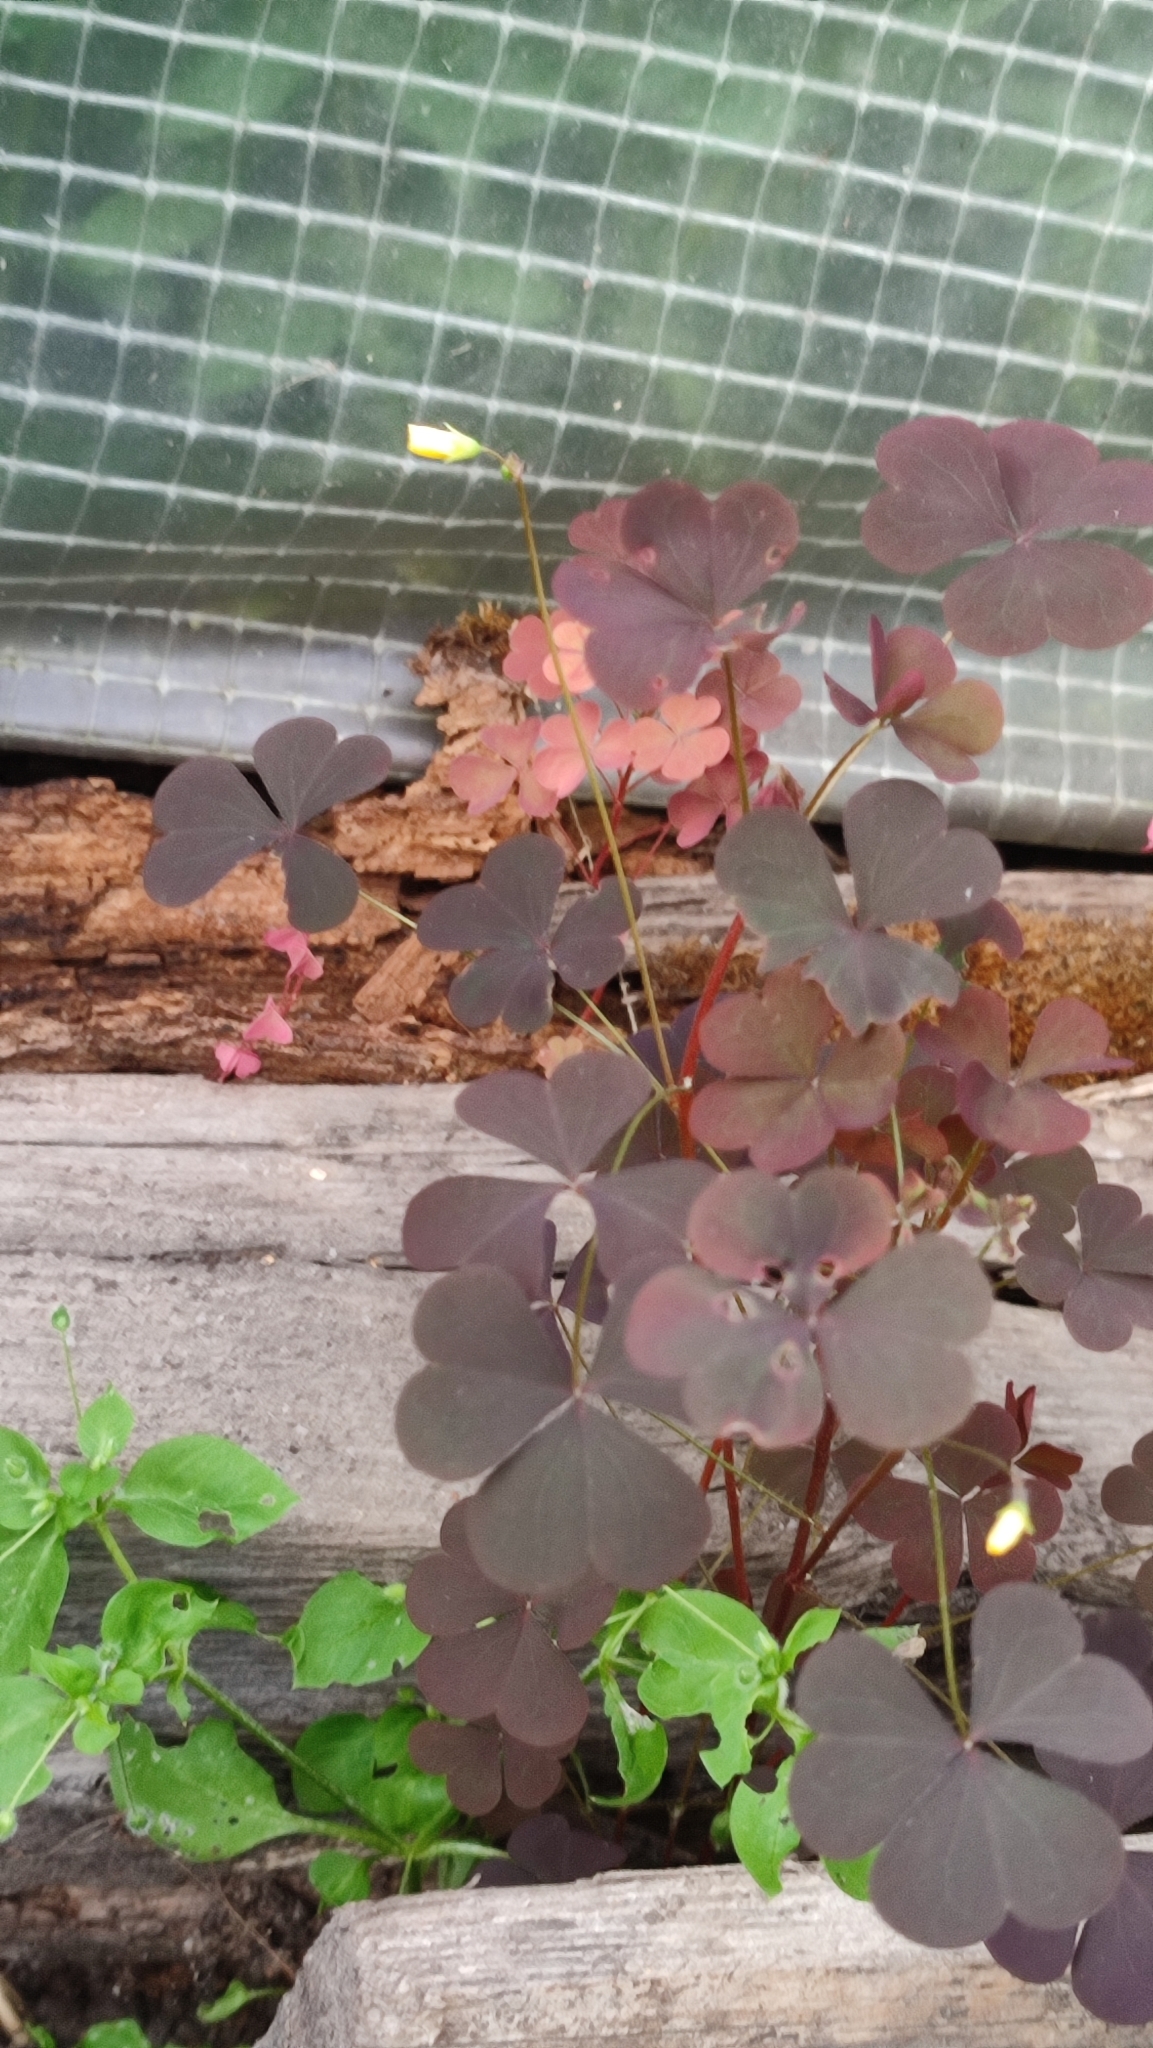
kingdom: Plantae
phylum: Tracheophyta
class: Magnoliopsida
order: Oxalidales
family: Oxalidaceae
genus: Oxalis
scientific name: Oxalis stricta
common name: Upright yellow-sorrel
